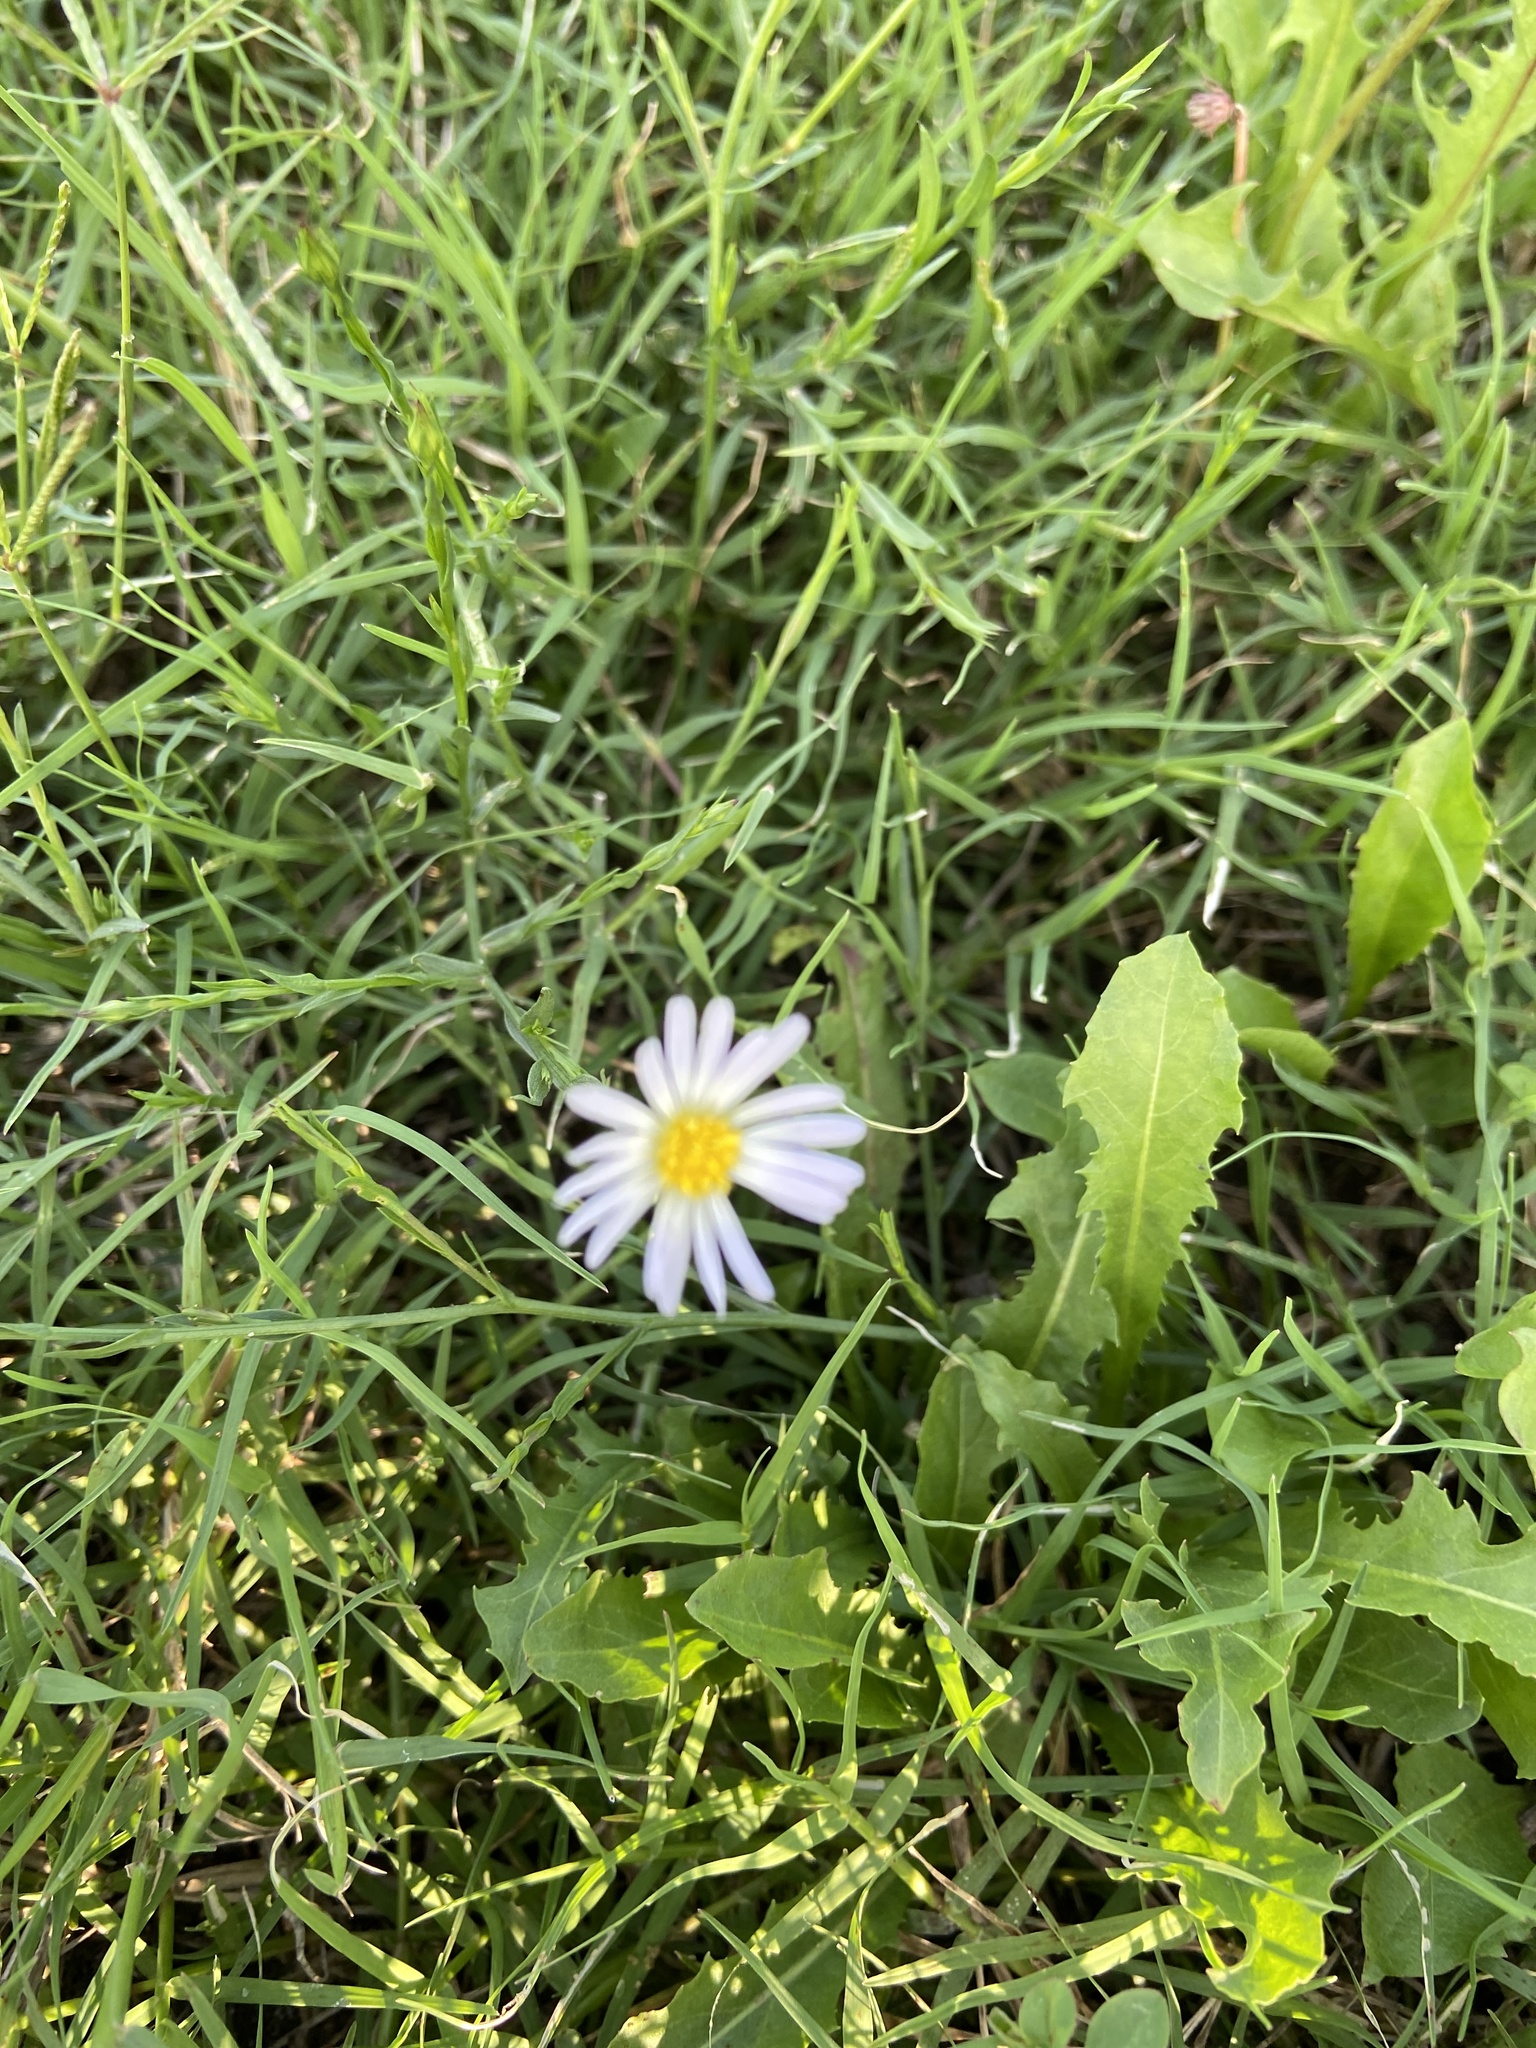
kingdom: Plantae
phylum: Tracheophyta
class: Magnoliopsida
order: Asterales
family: Asteraceae
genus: Symphyotrichum
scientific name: Symphyotrichum divaricatum
